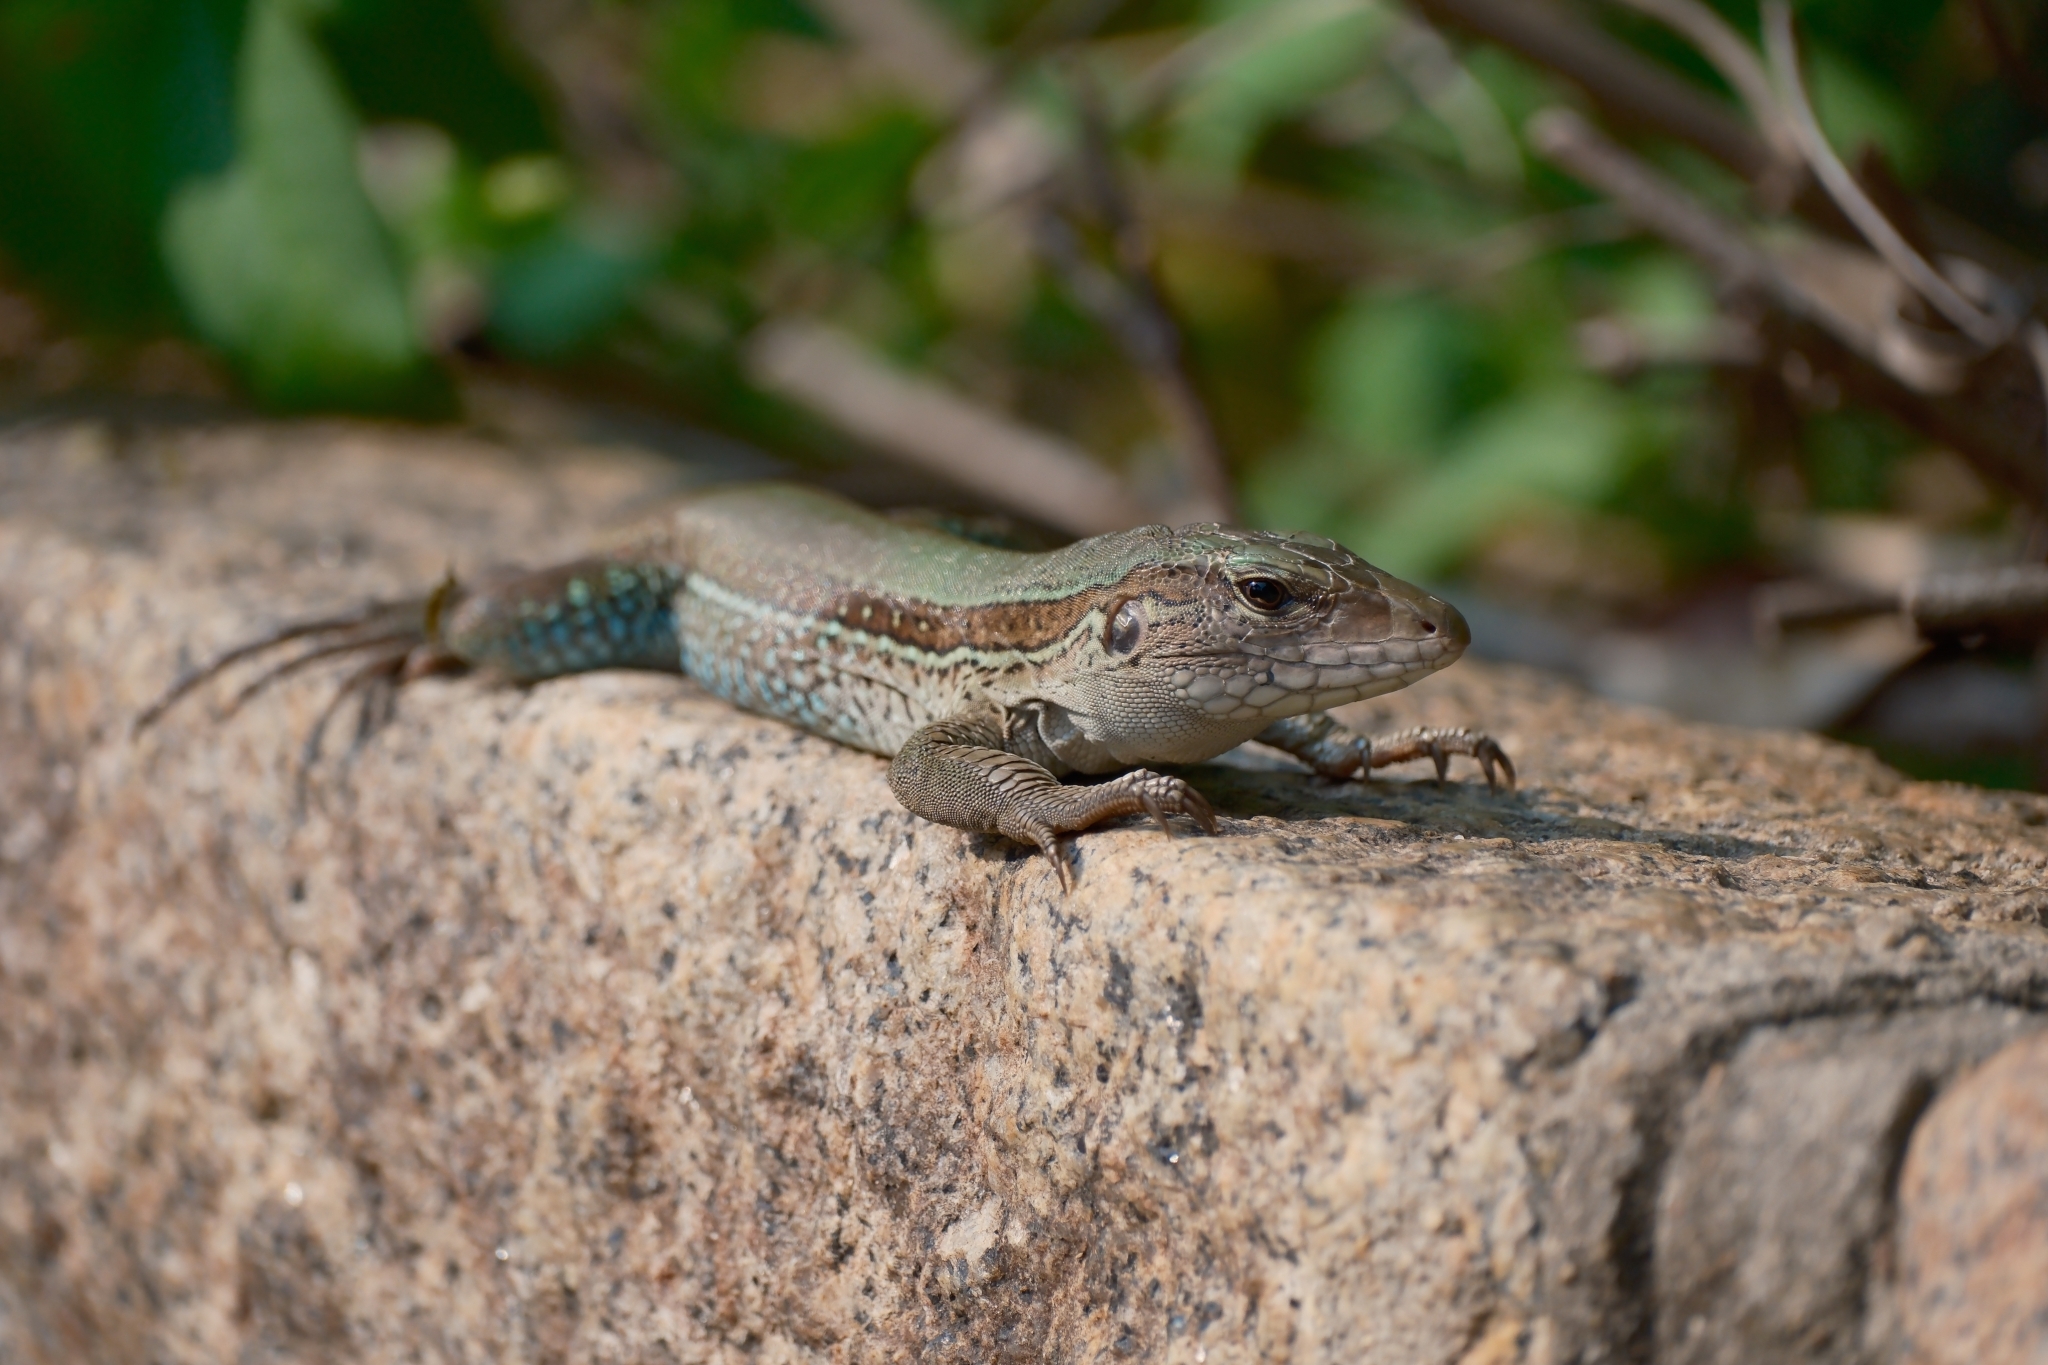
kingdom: Animalia
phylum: Chordata
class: Squamata
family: Teiidae
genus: Ameiva
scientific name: Ameiva ameiva
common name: Giant ameiva
